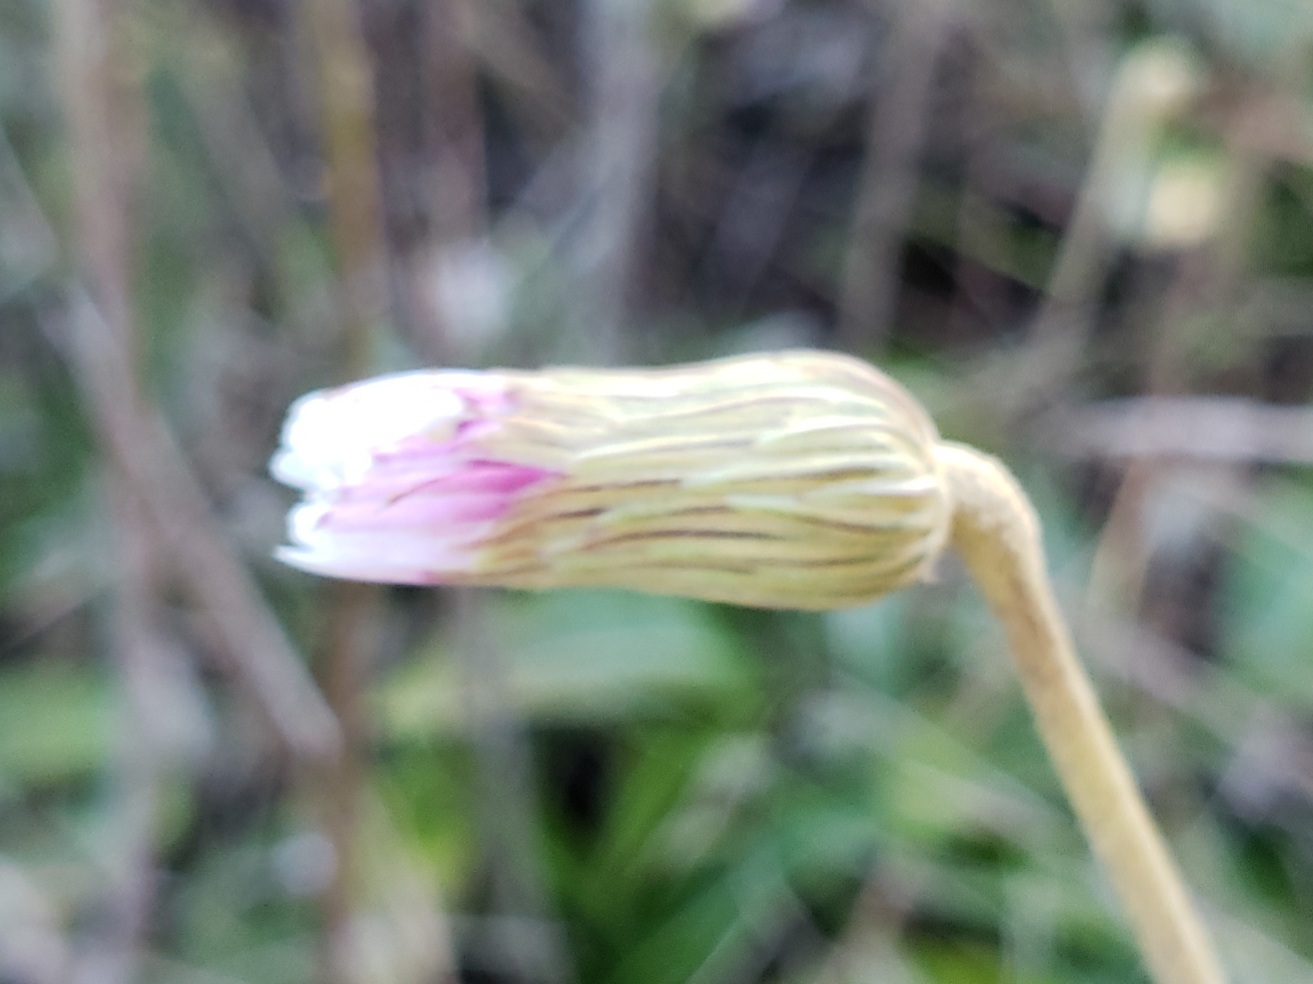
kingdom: Plantae
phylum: Tracheophyta
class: Magnoliopsida
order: Asterales
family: Asteraceae
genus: Chaptalia
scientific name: Chaptalia tomentosa
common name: Woolly sunbonnet
